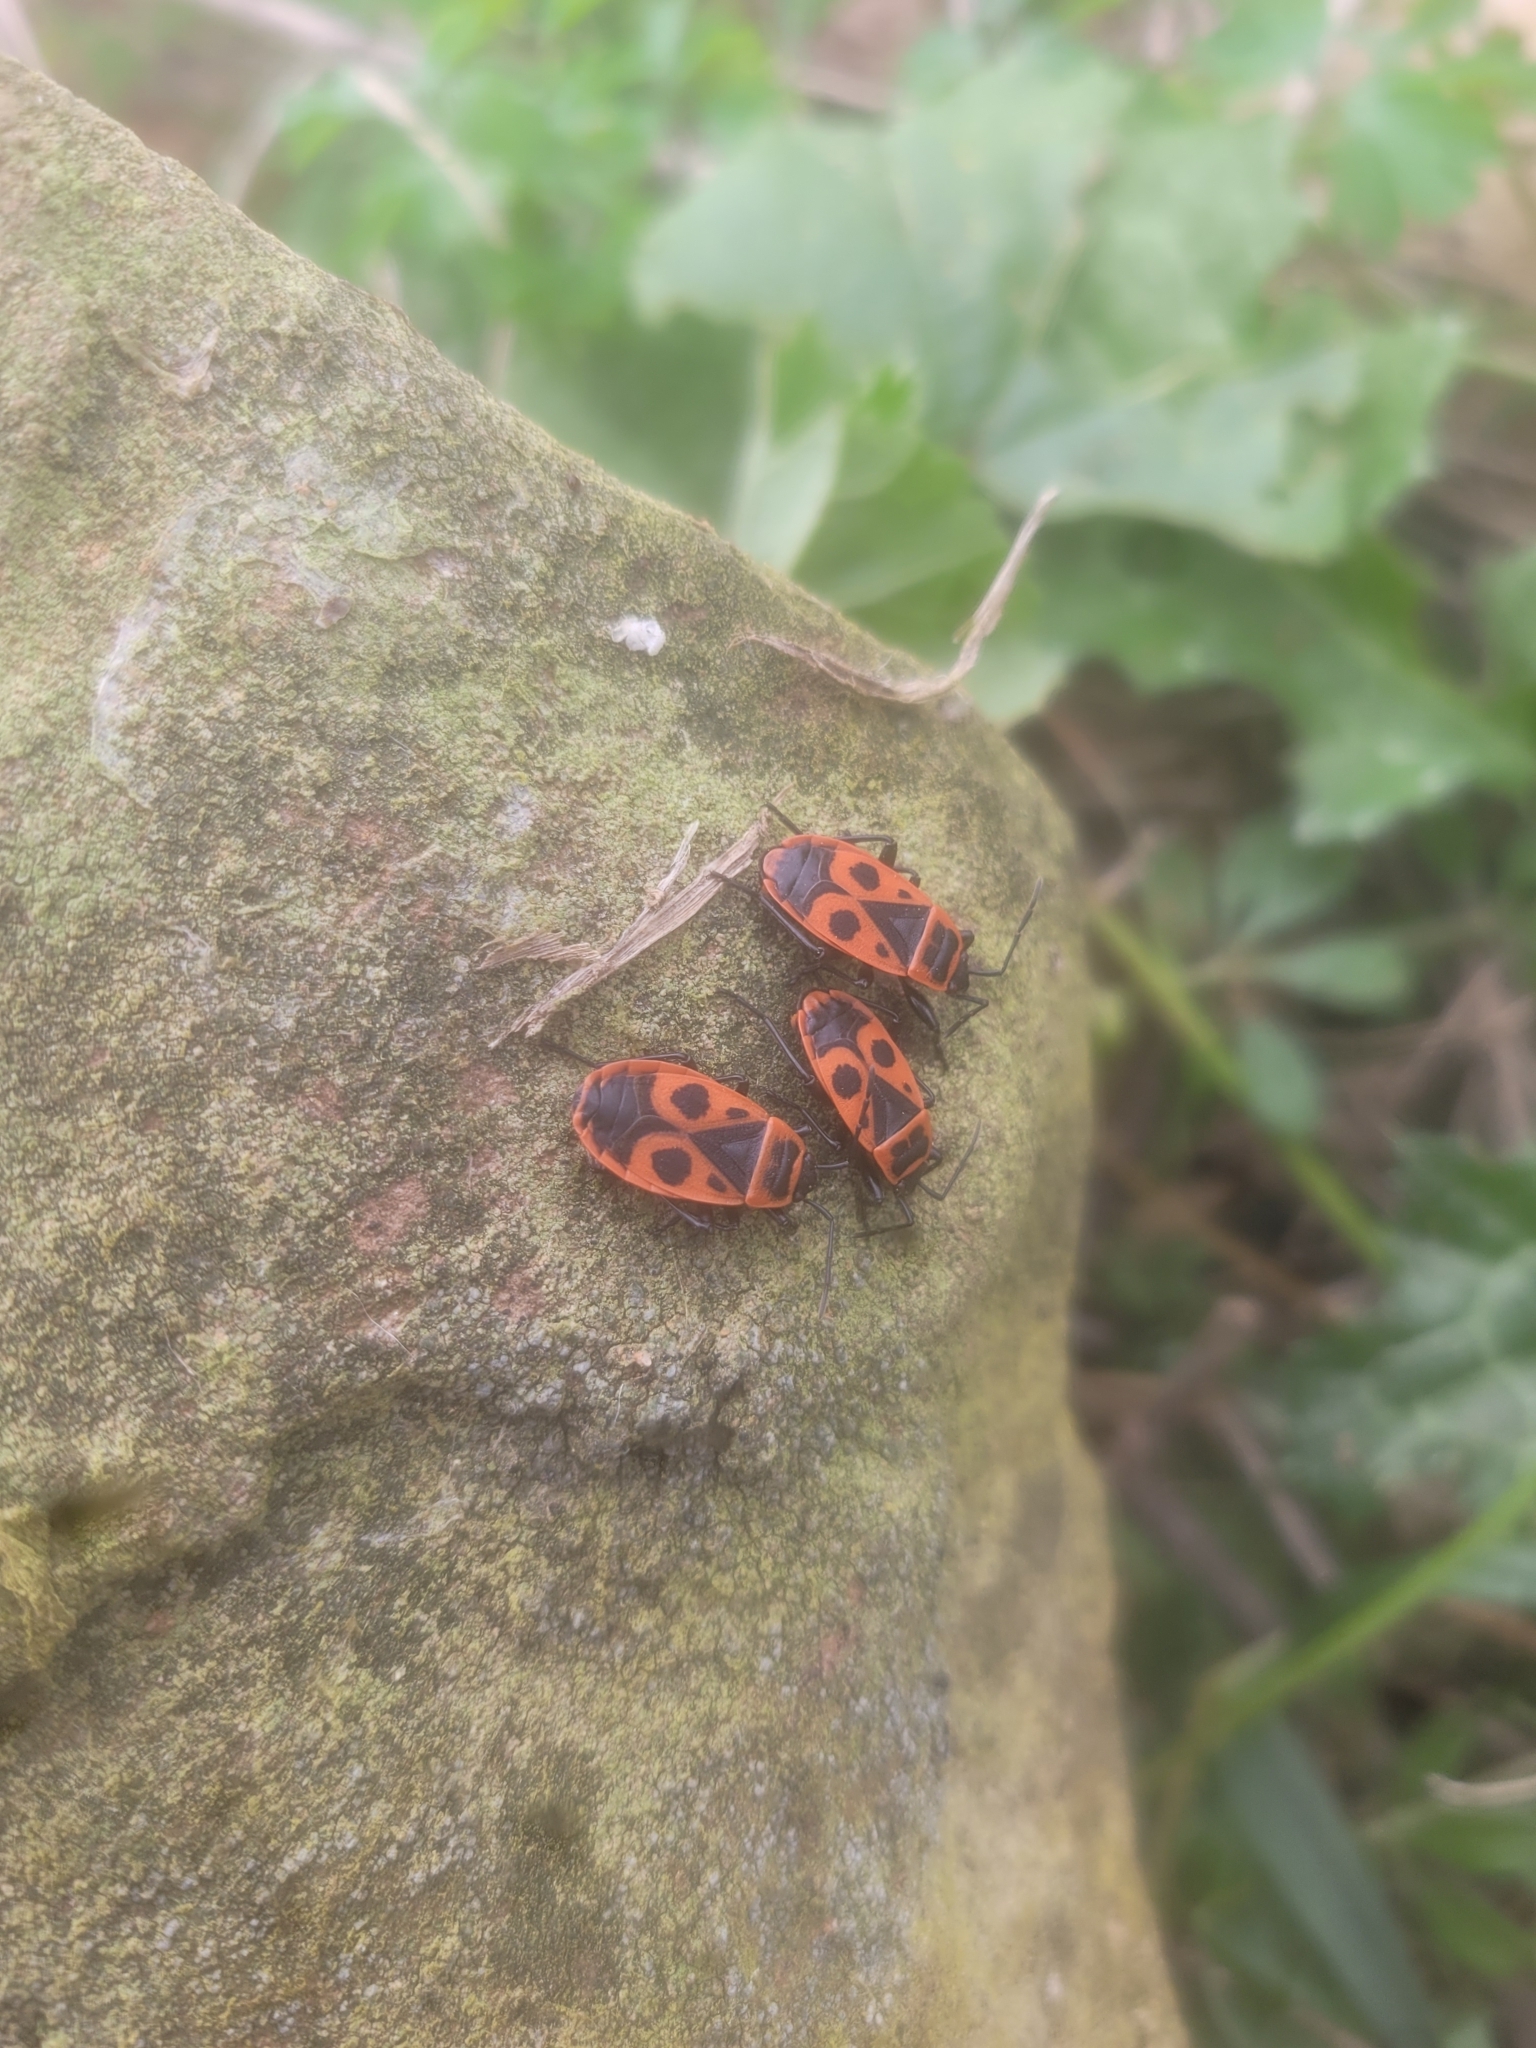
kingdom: Animalia
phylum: Arthropoda
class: Insecta
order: Hemiptera
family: Pyrrhocoridae
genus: Pyrrhocoris
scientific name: Pyrrhocoris apterus
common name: Firebug
